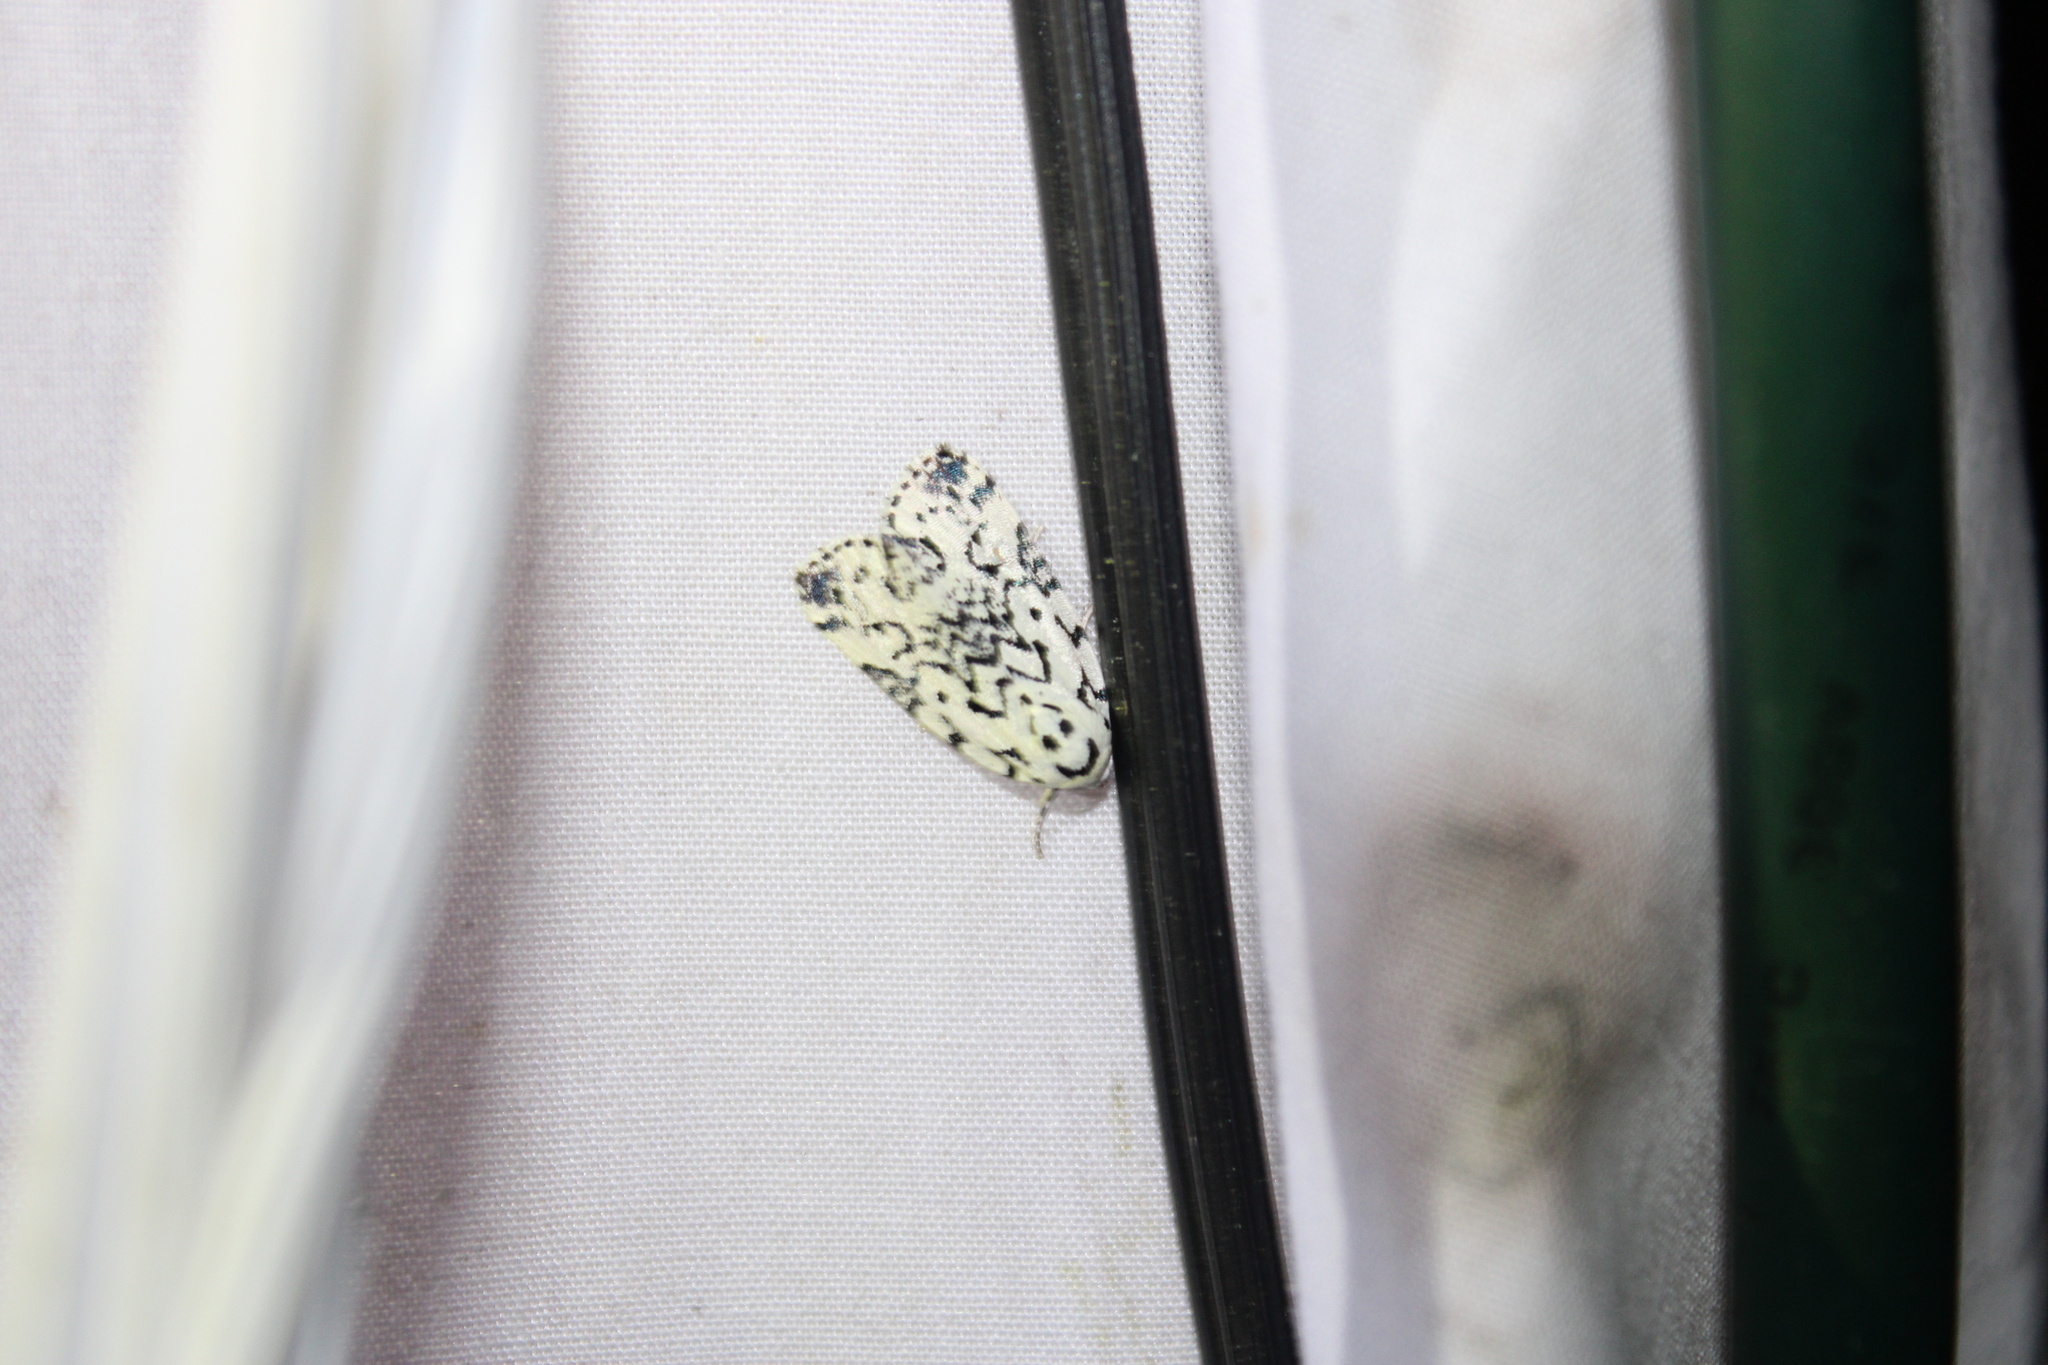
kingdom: Animalia
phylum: Arthropoda
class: Insecta
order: Lepidoptera
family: Noctuidae
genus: Polygrammate
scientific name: Polygrammate hebraeicum
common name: Hebrew moth
